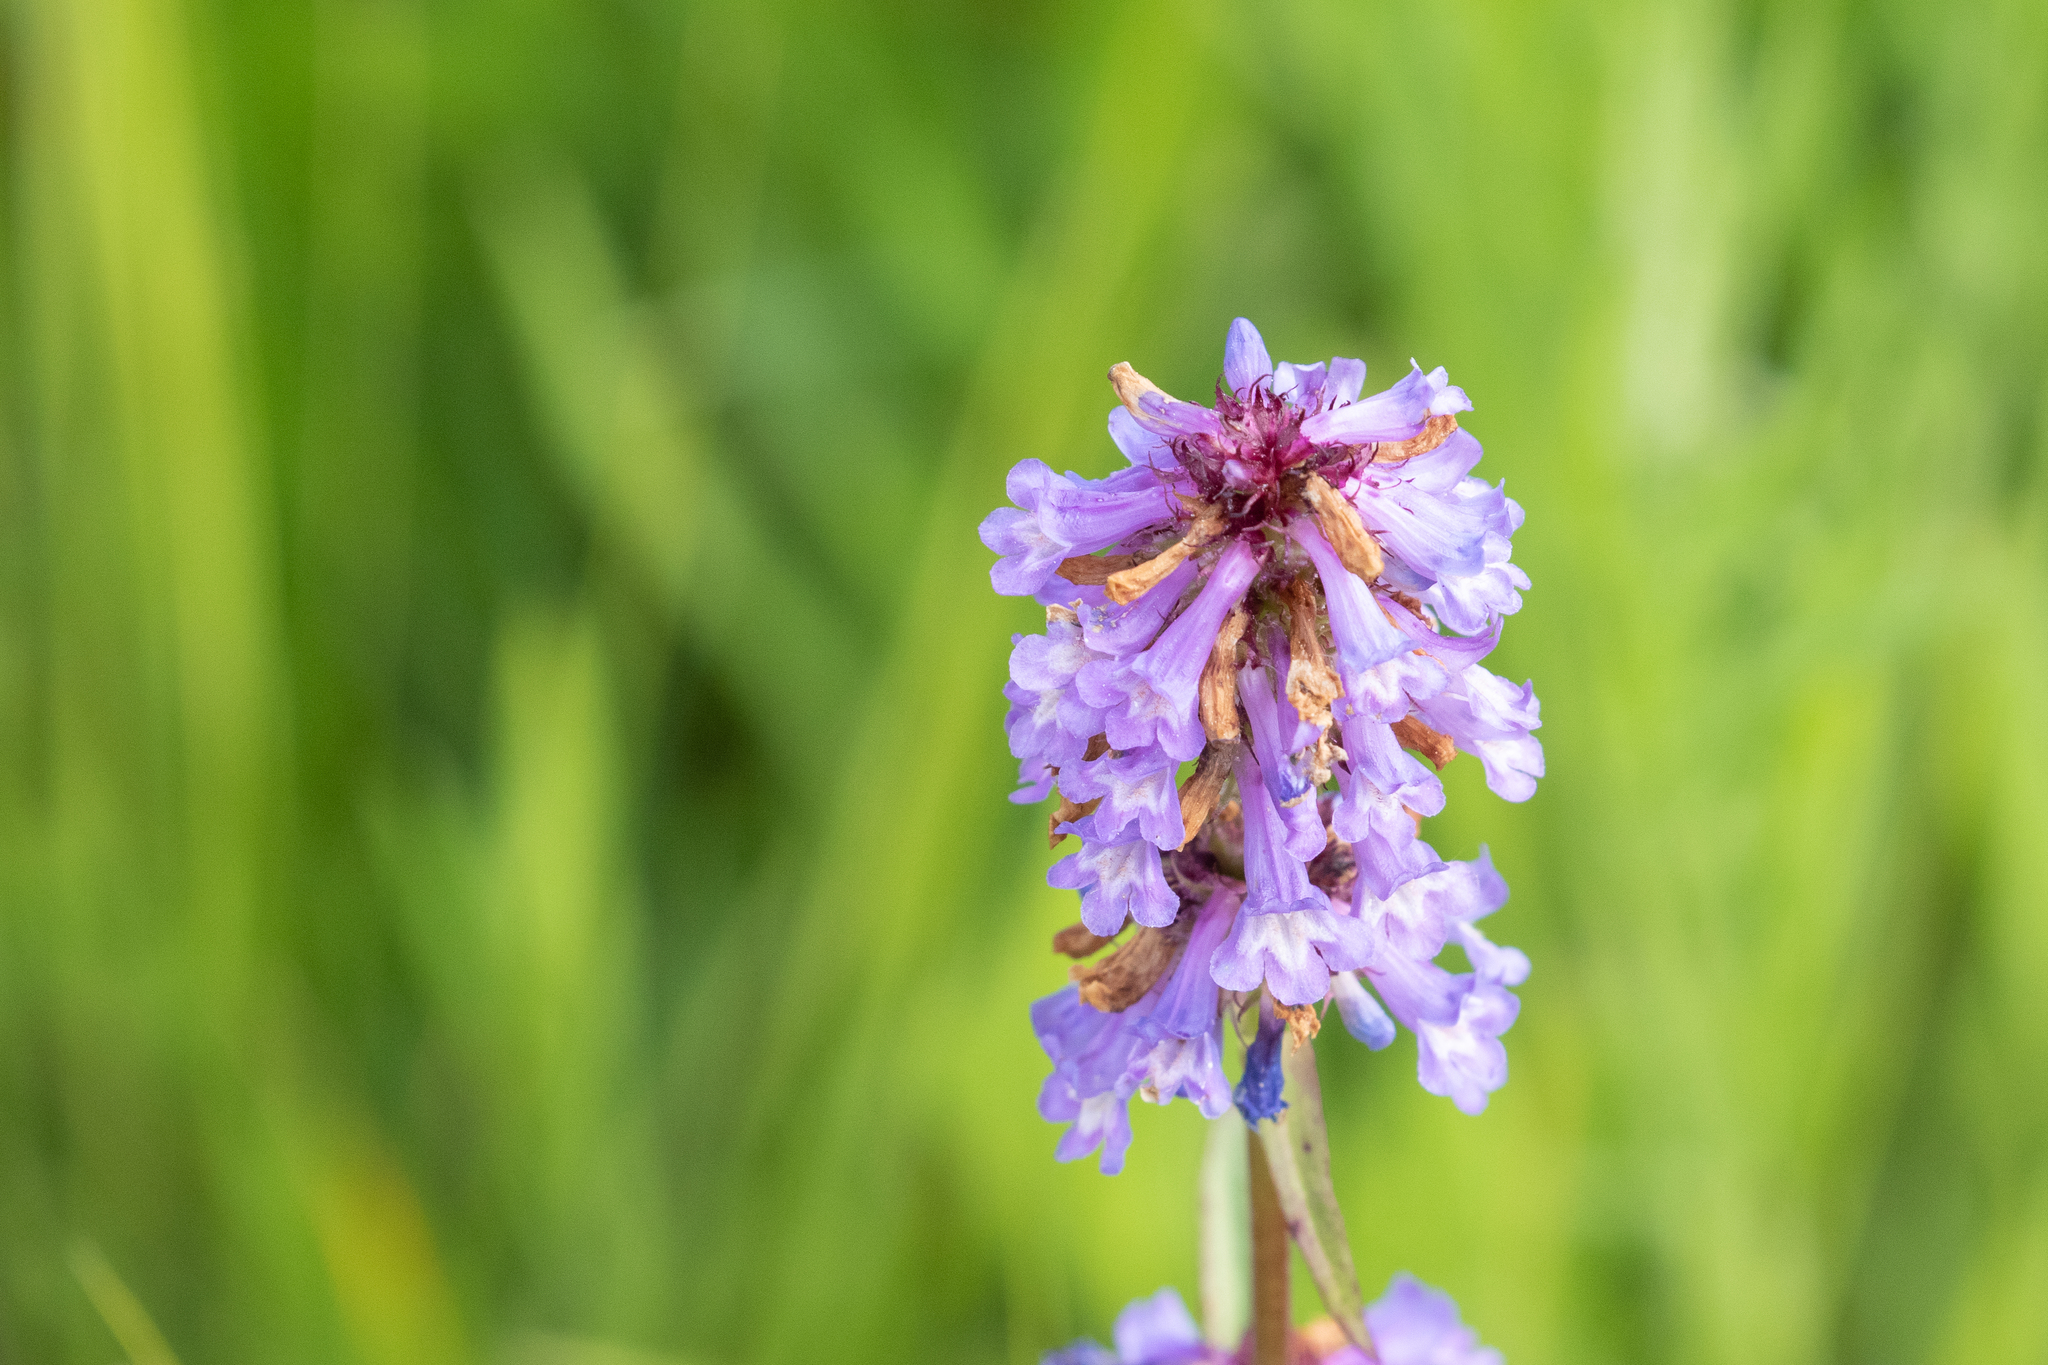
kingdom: Plantae
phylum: Tracheophyta
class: Magnoliopsida
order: Lamiales
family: Plantaginaceae
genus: Penstemon
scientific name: Penstemon procerus
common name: Small-flower penstemon
